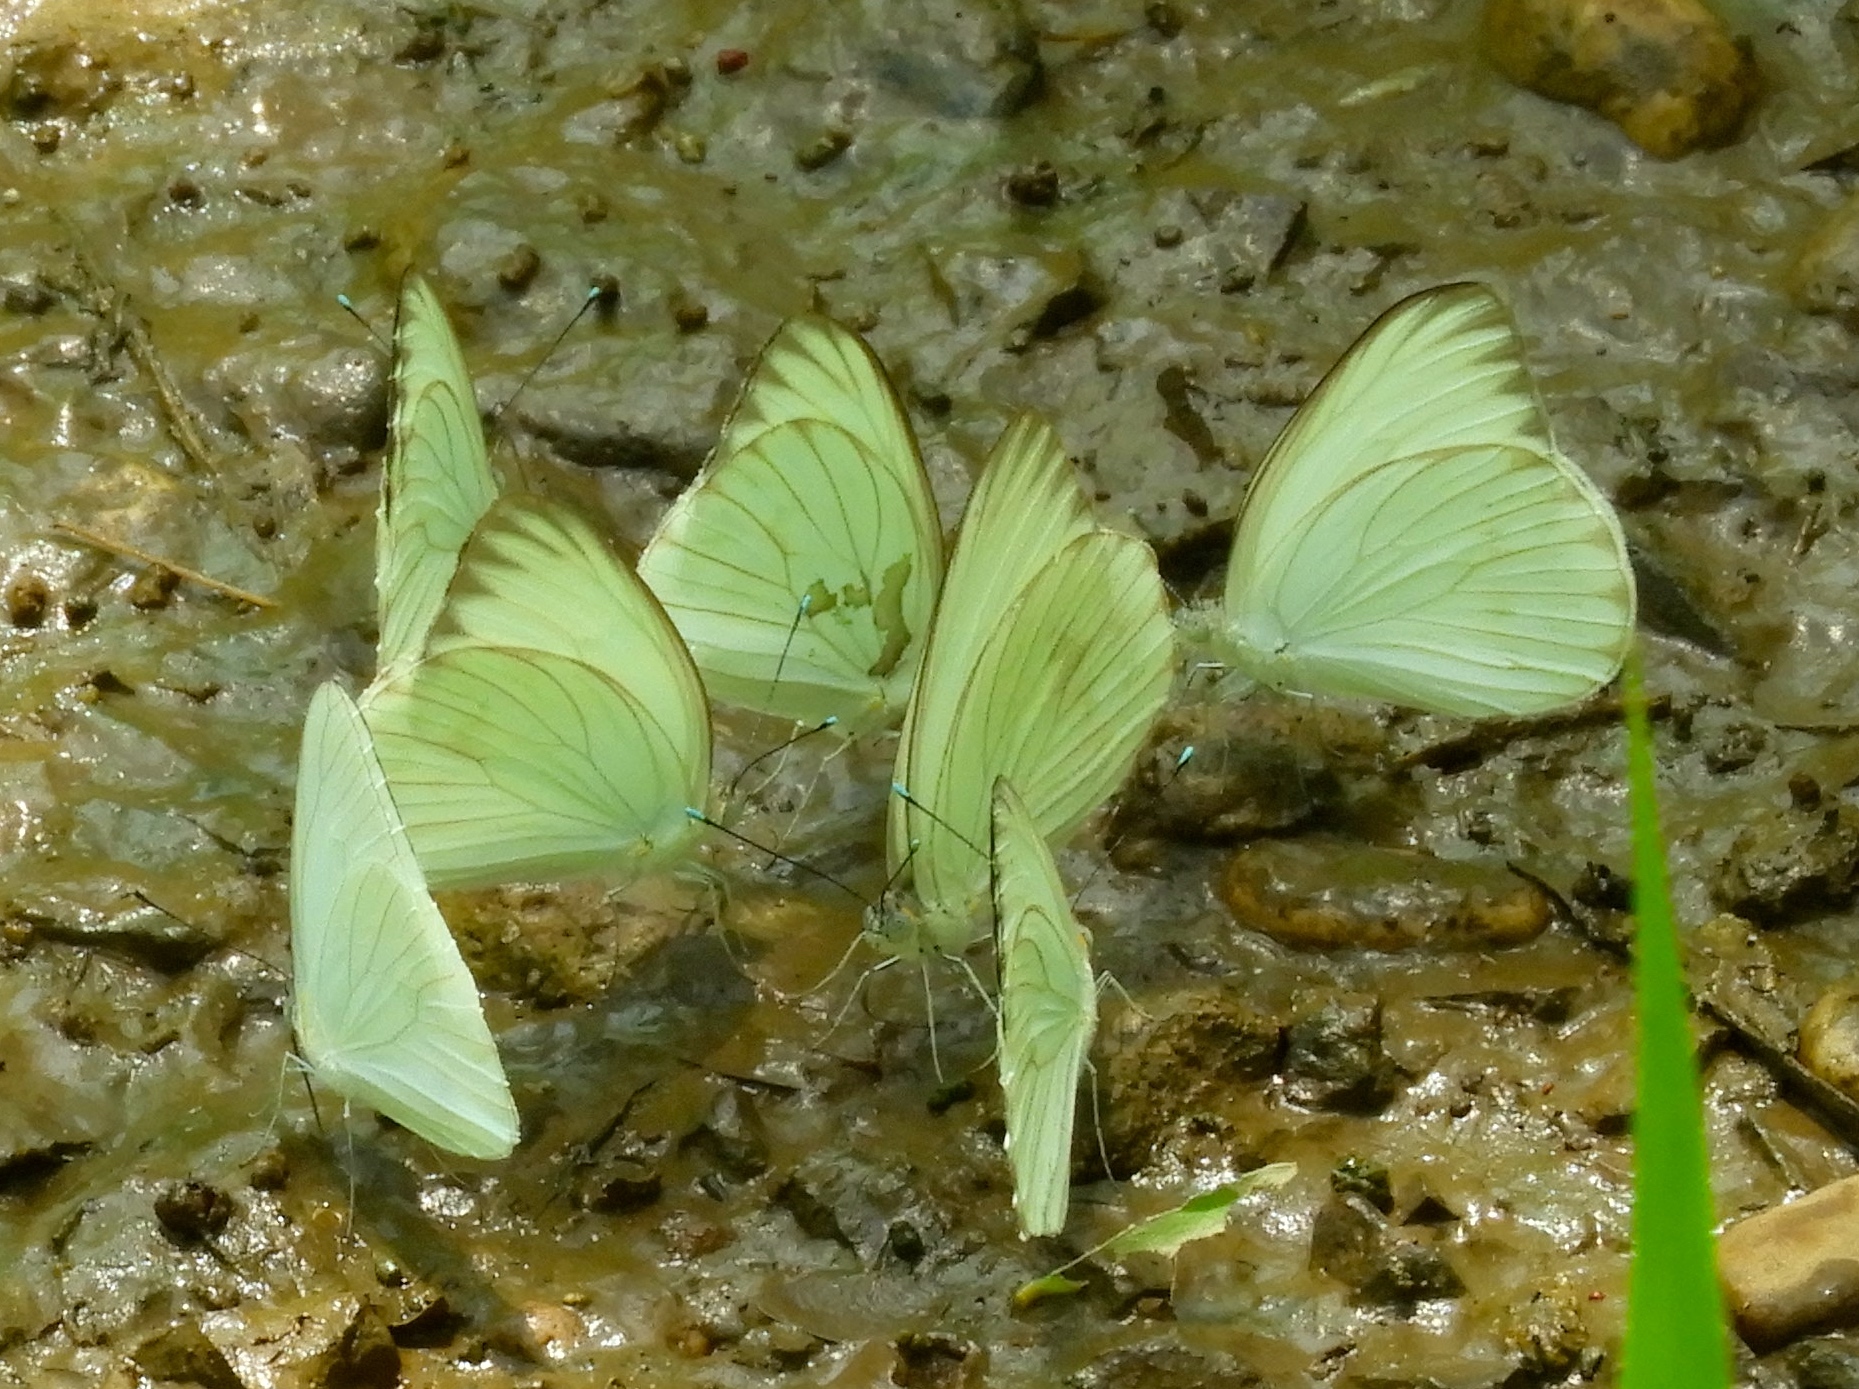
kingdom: Animalia
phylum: Arthropoda
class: Insecta
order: Lepidoptera
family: Pieridae
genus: Ascia
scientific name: Ascia monuste
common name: Great southern white
